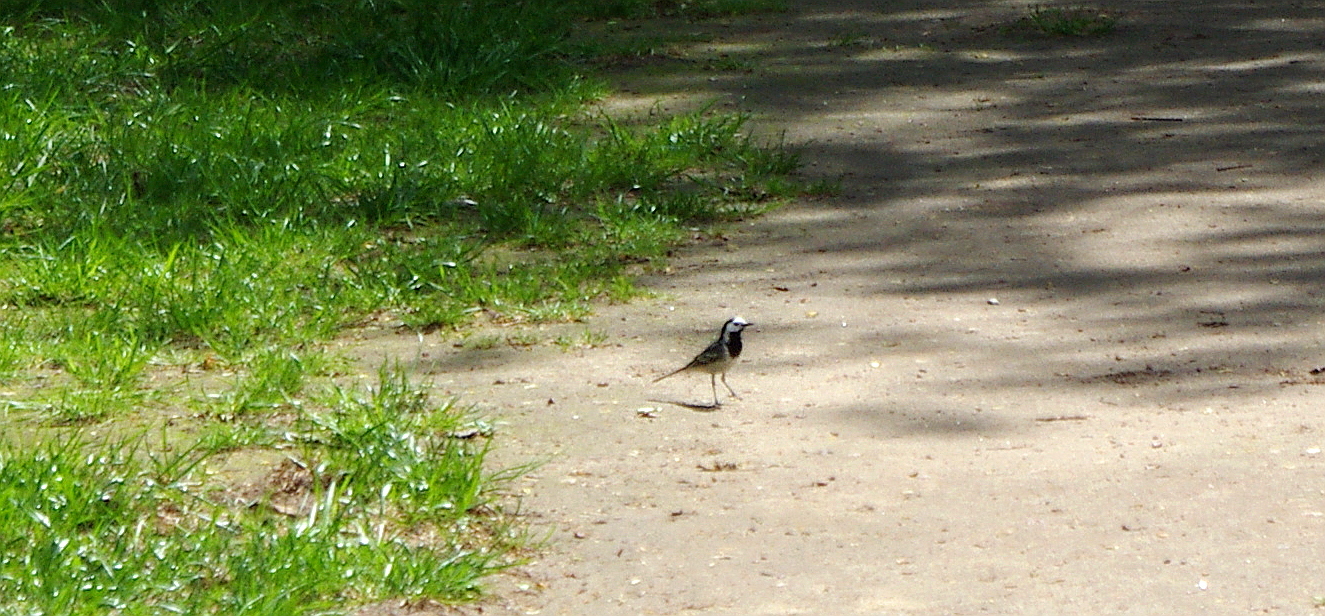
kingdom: Animalia
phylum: Chordata
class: Aves
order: Passeriformes
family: Motacillidae
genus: Motacilla
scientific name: Motacilla alba
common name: White wagtail
